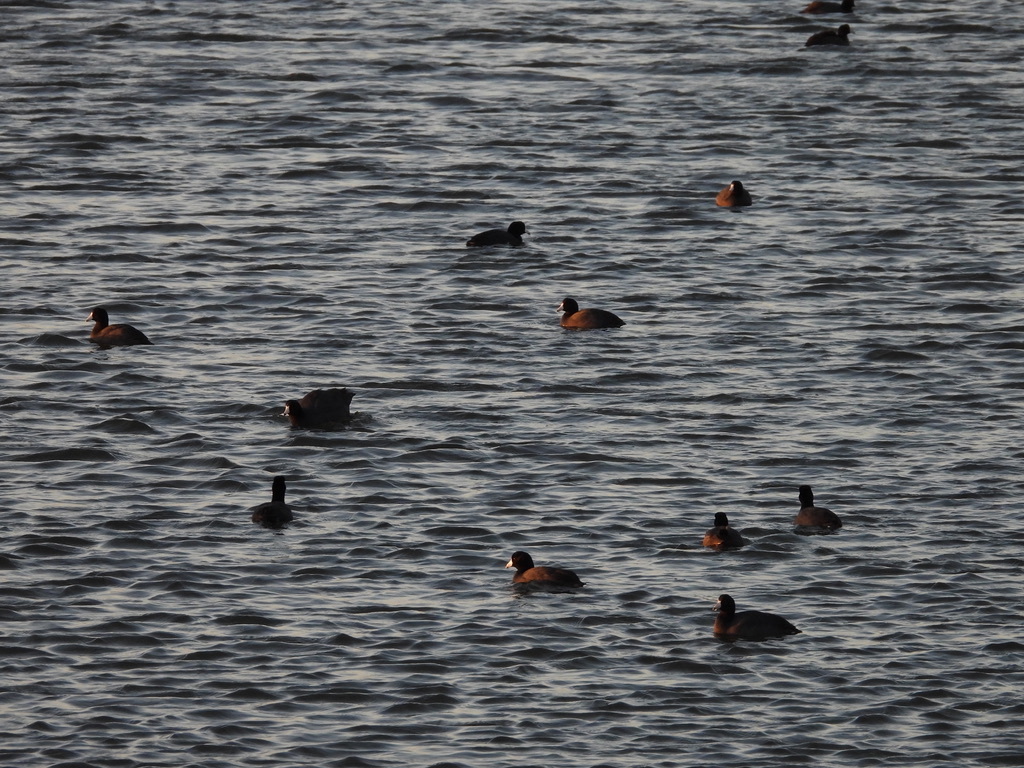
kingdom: Animalia
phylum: Chordata
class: Aves
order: Gruiformes
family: Rallidae
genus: Fulica
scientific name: Fulica americana
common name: American coot
